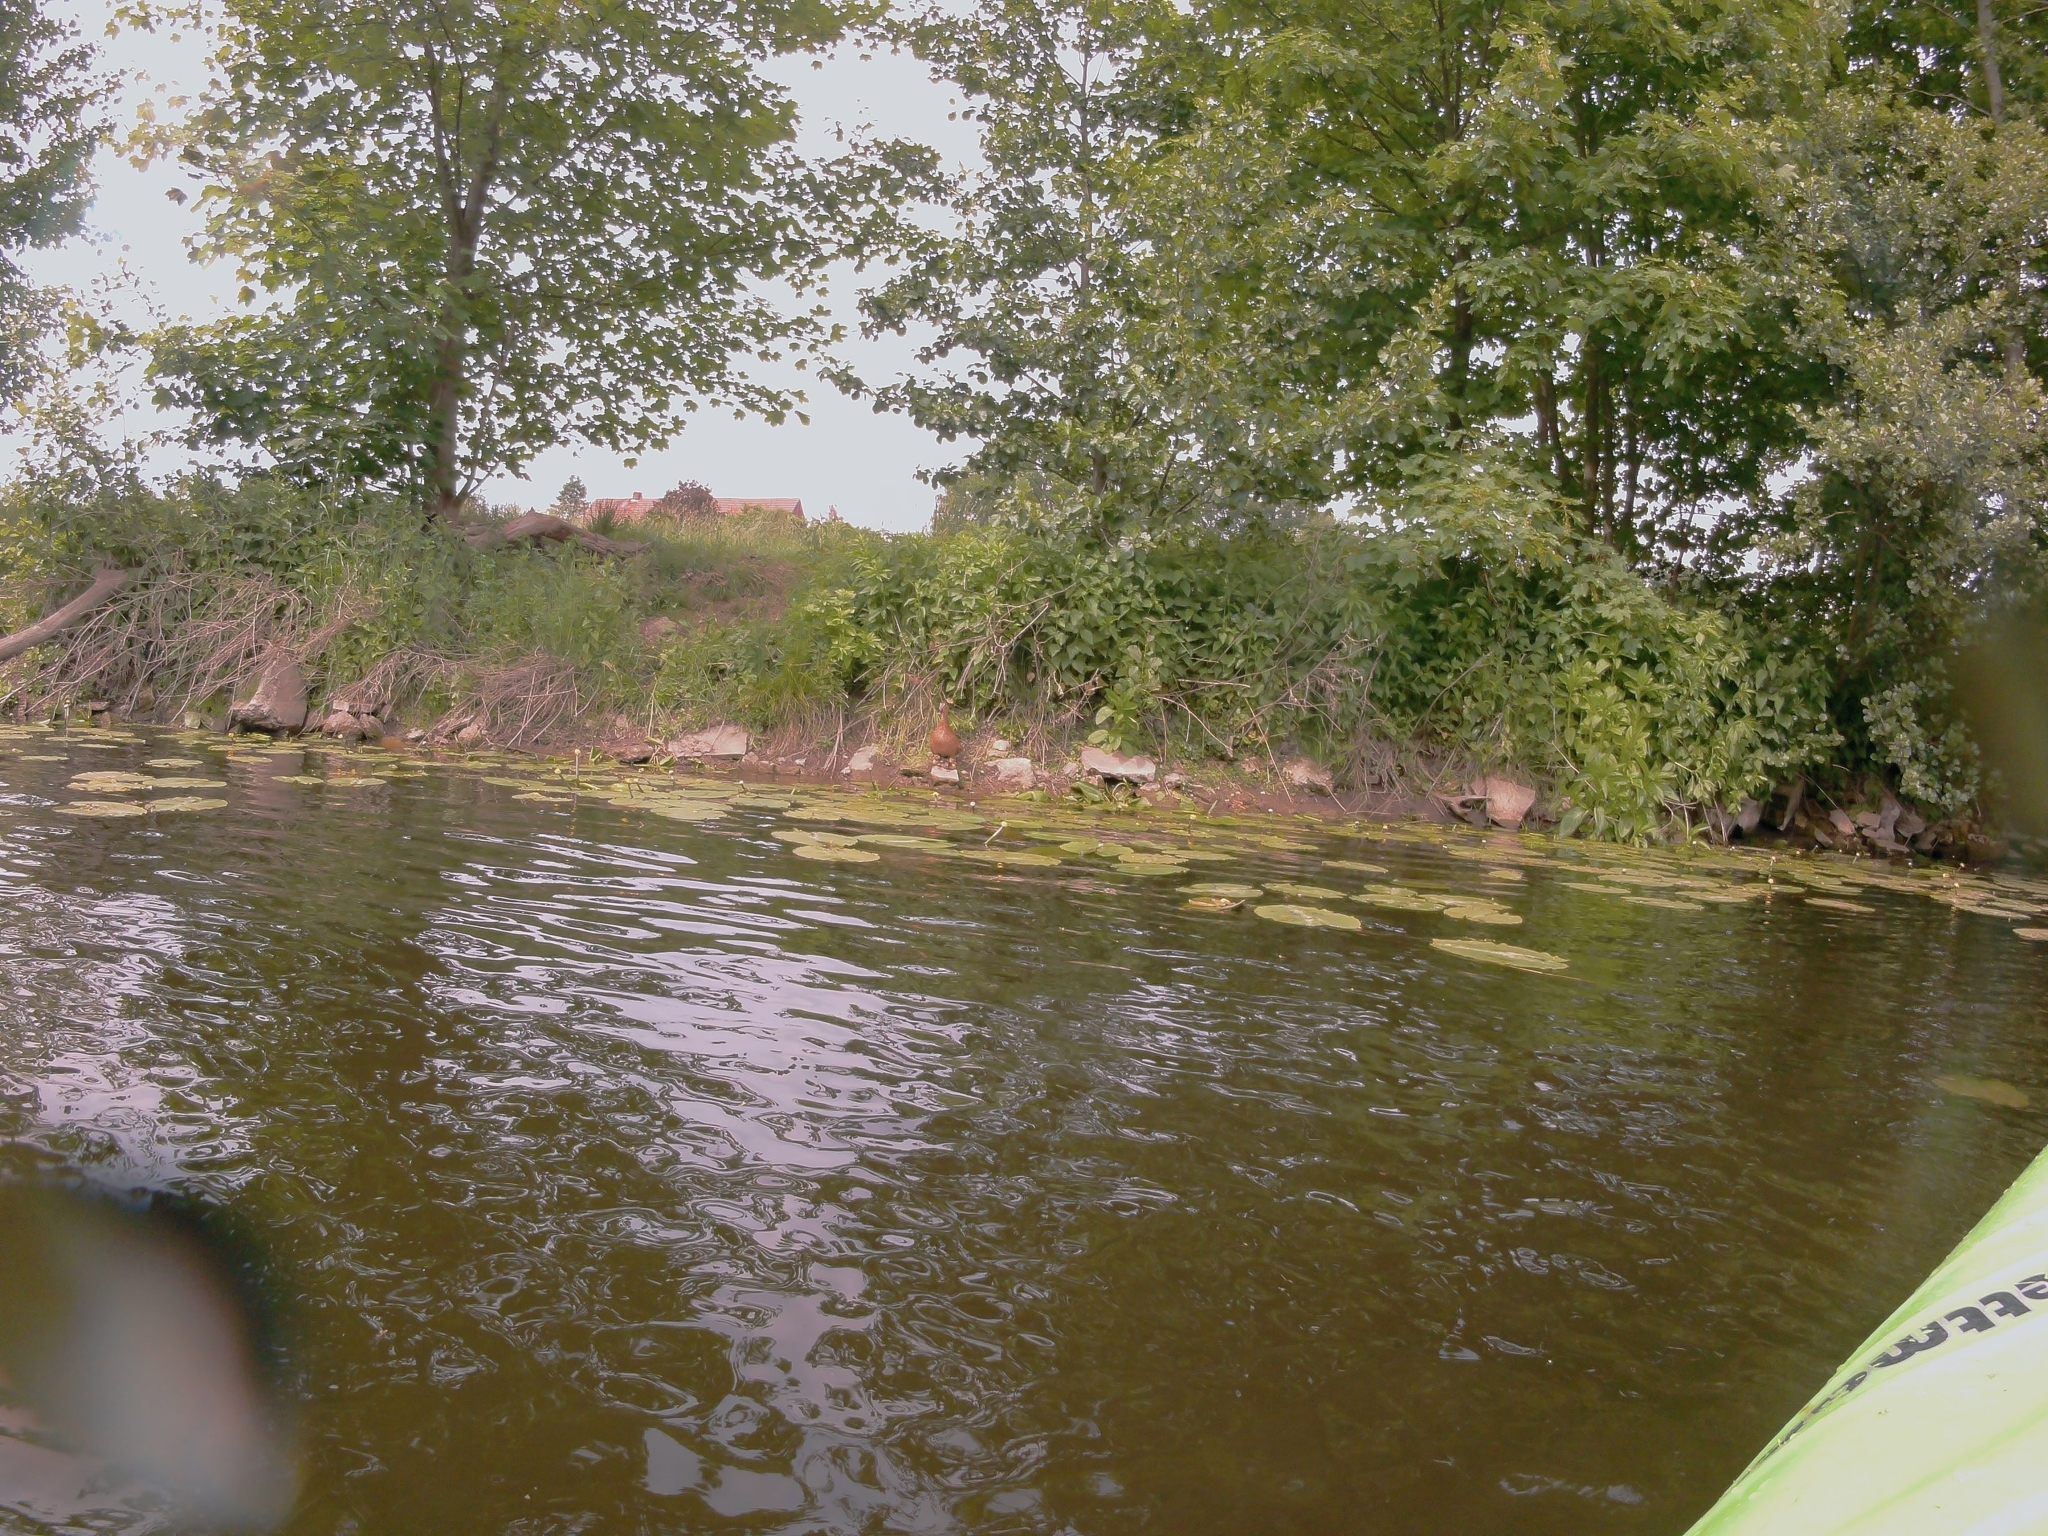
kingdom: Animalia
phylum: Chordata
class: Aves
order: Anseriformes
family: Anatidae
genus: Anas
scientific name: Anas platyrhynchos
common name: Mallard
